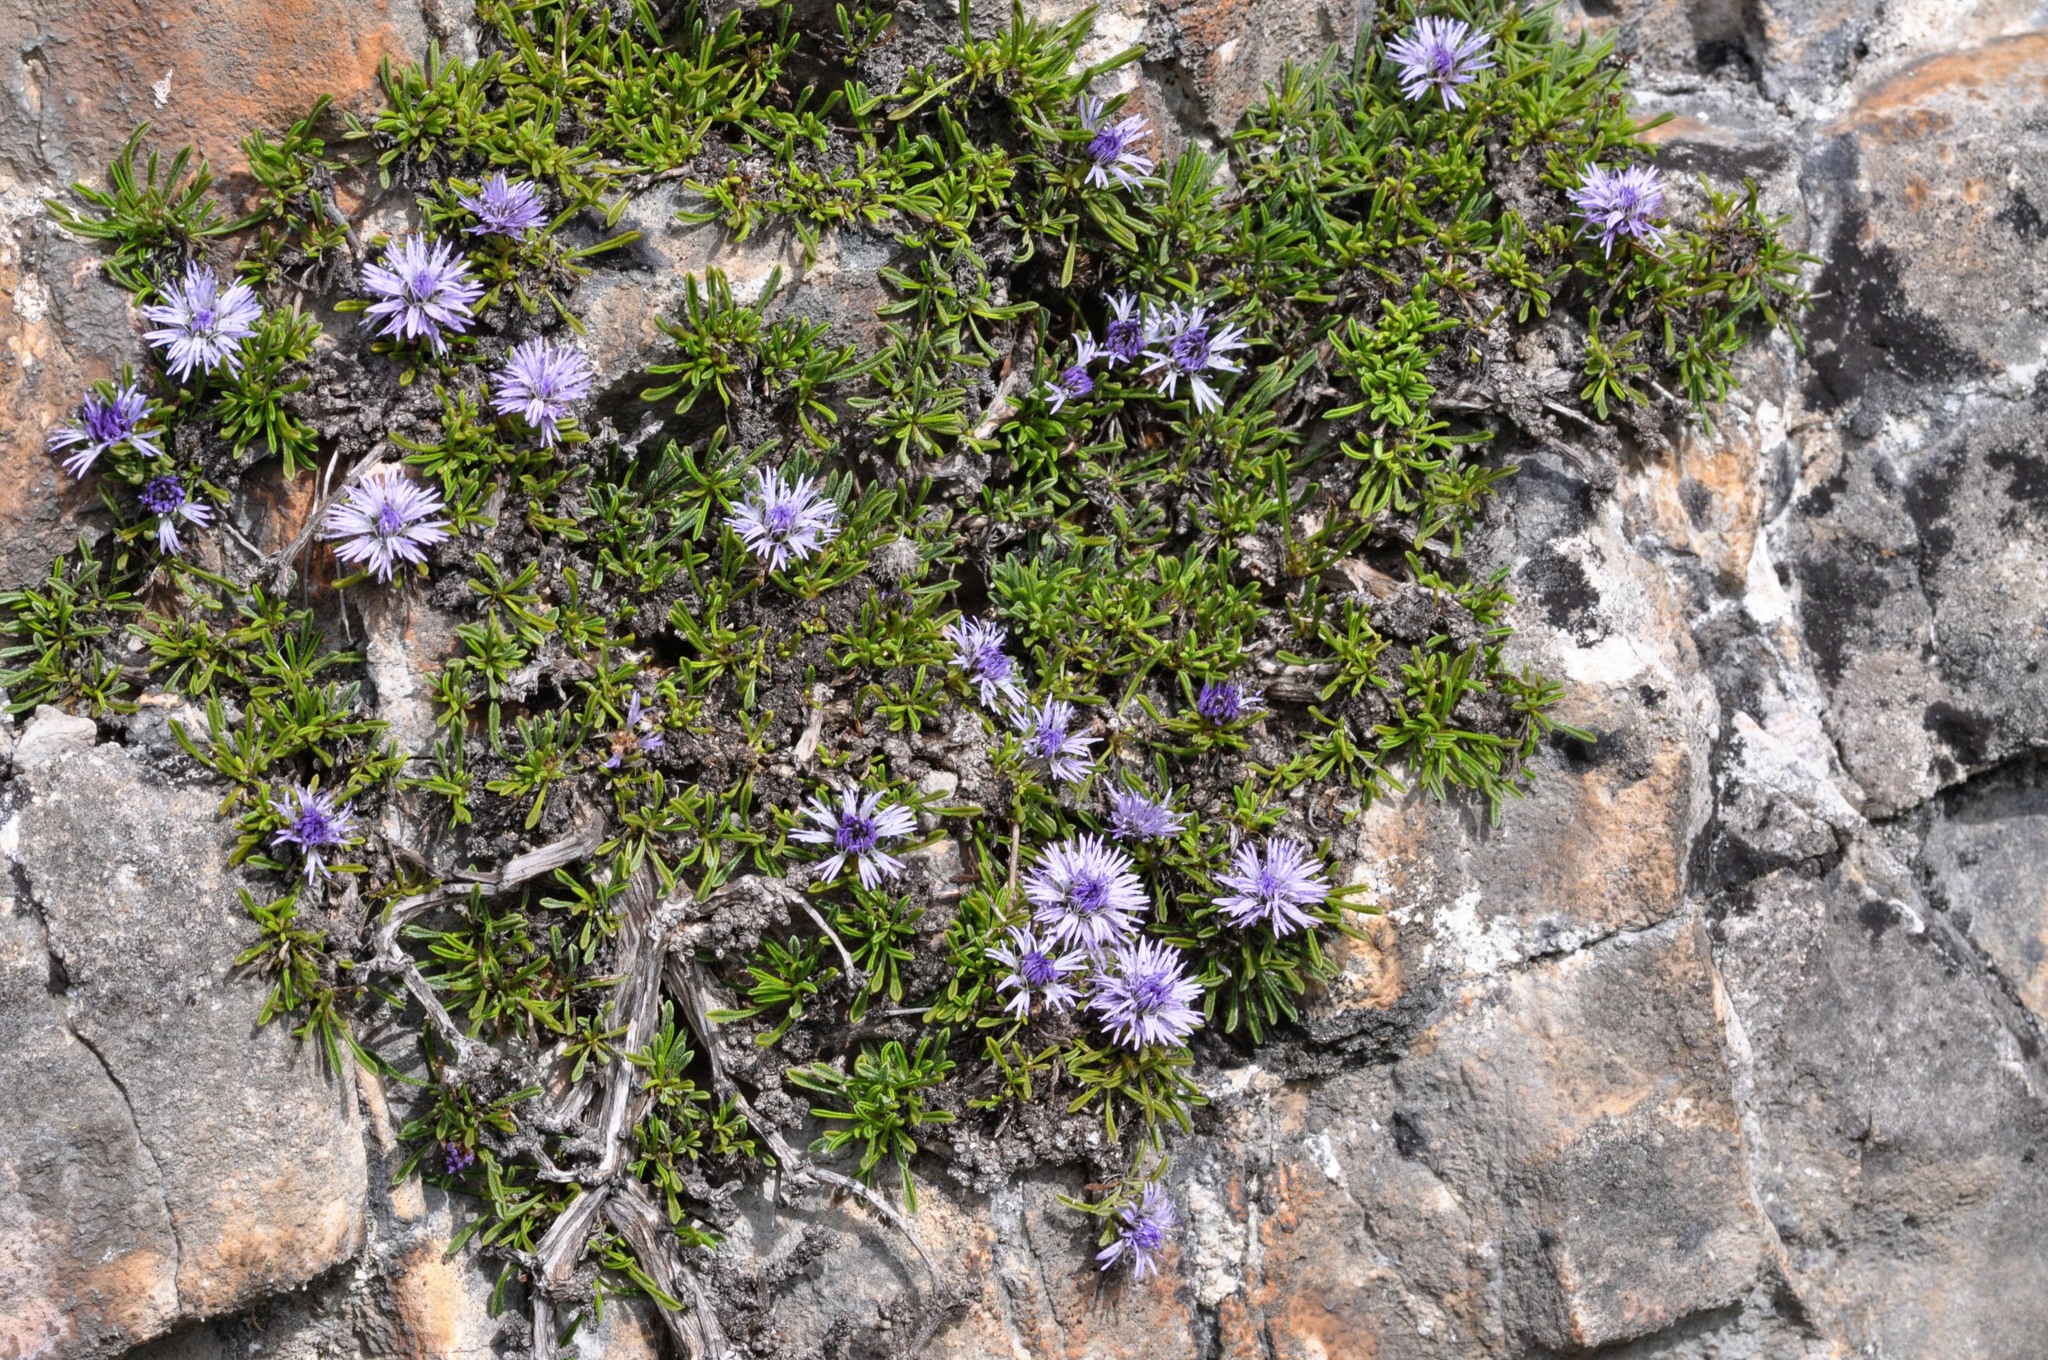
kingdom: Plantae
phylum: Tracheophyta
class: Magnoliopsida
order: Lamiales
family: Plantaginaceae
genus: Globularia
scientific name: Globularia repens
